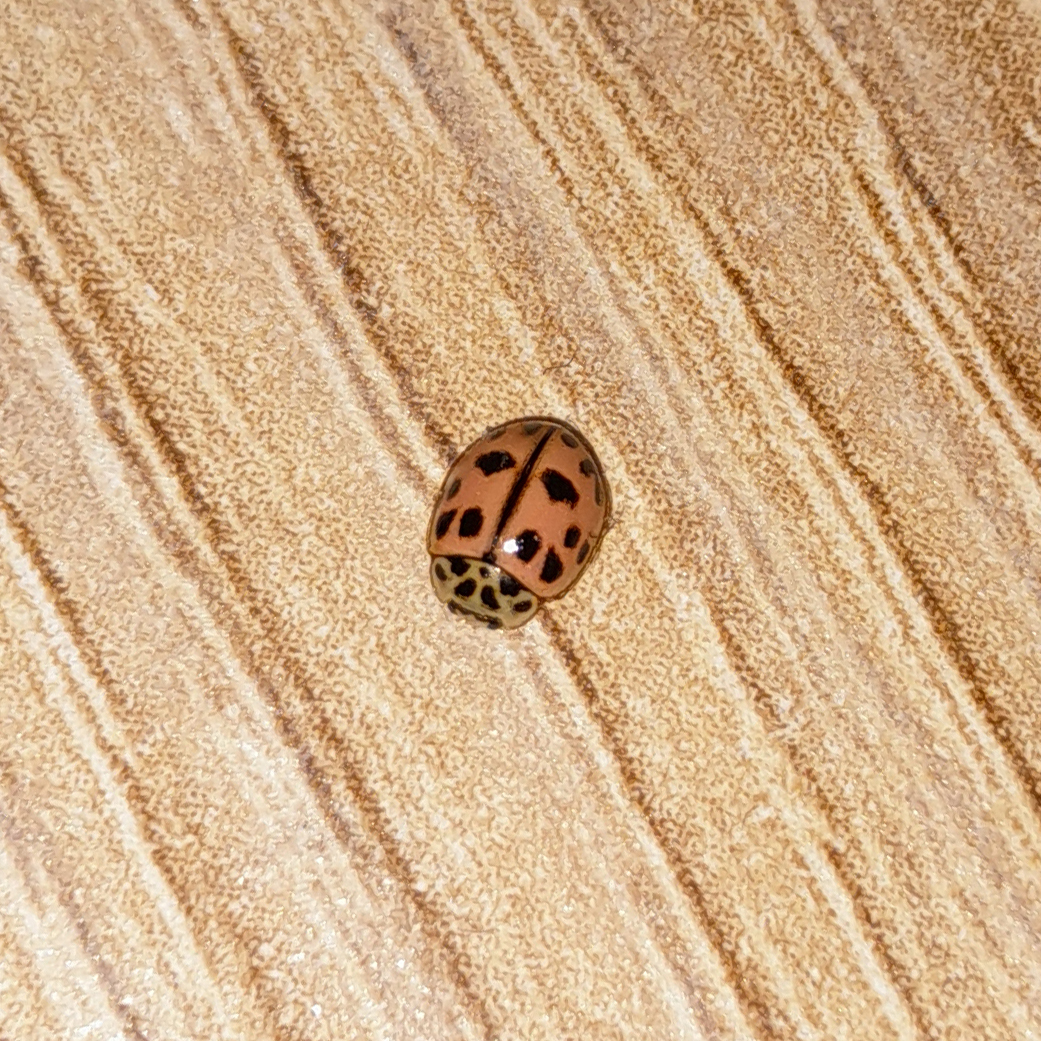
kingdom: Animalia
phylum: Arthropoda
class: Insecta
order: Coleoptera
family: Coccinellidae
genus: Oenopia
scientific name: Oenopia conglobata
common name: Ladybird beetle
